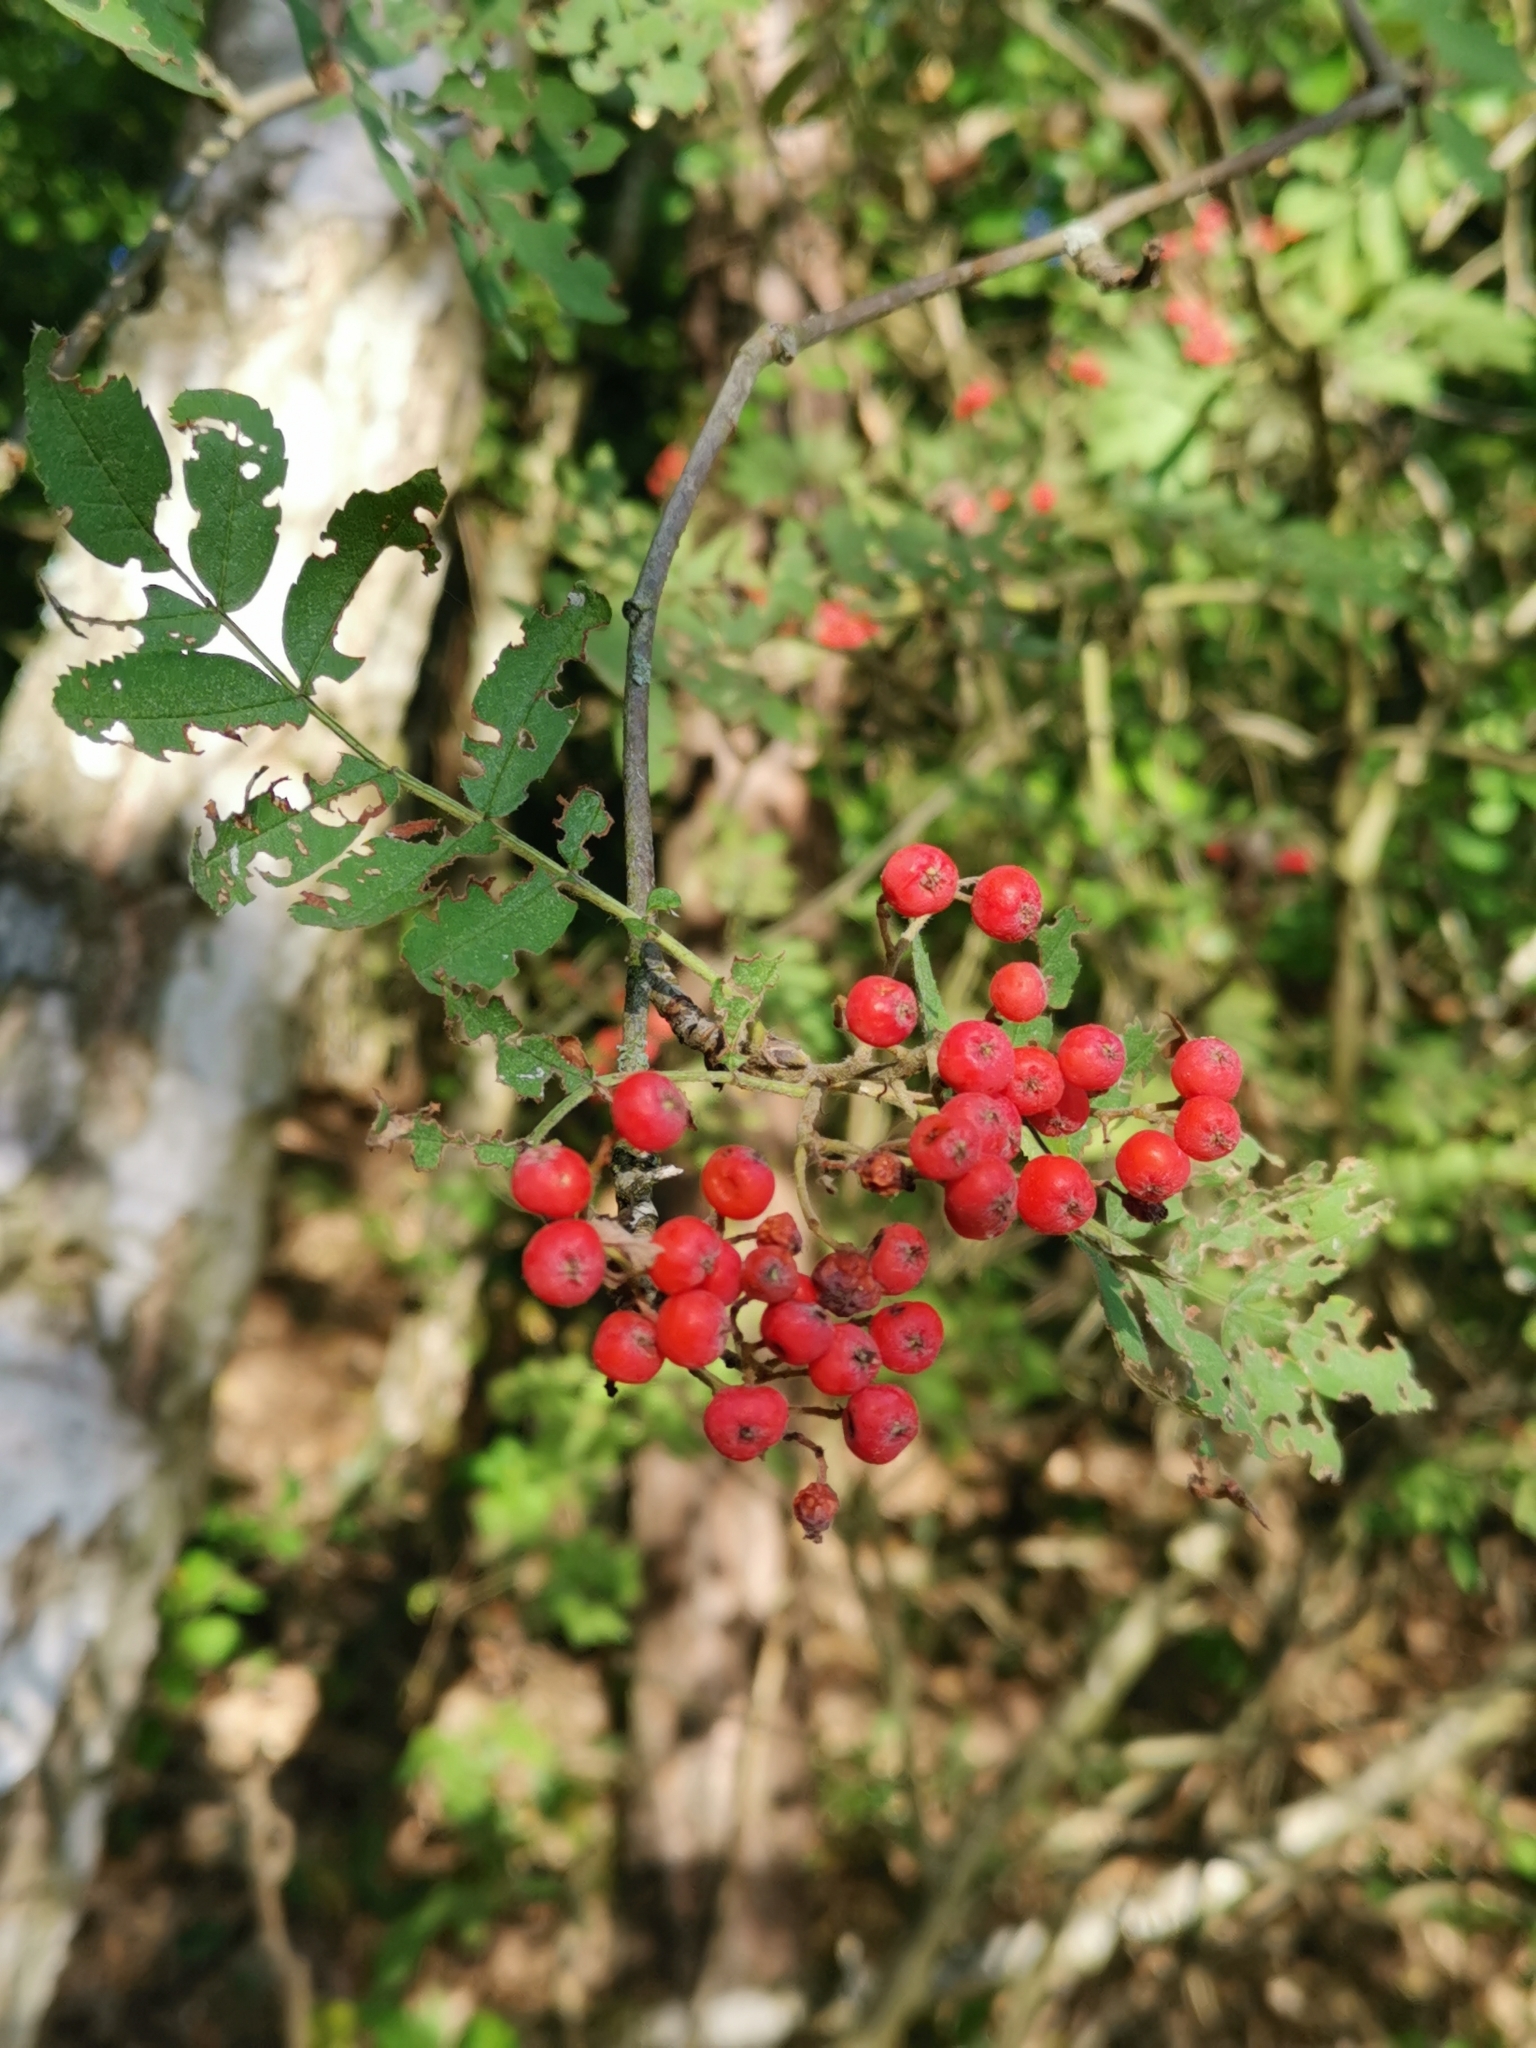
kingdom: Plantae
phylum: Tracheophyta
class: Magnoliopsida
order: Rosales
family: Rosaceae
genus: Sorbus
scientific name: Sorbus aucuparia
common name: Rowan
